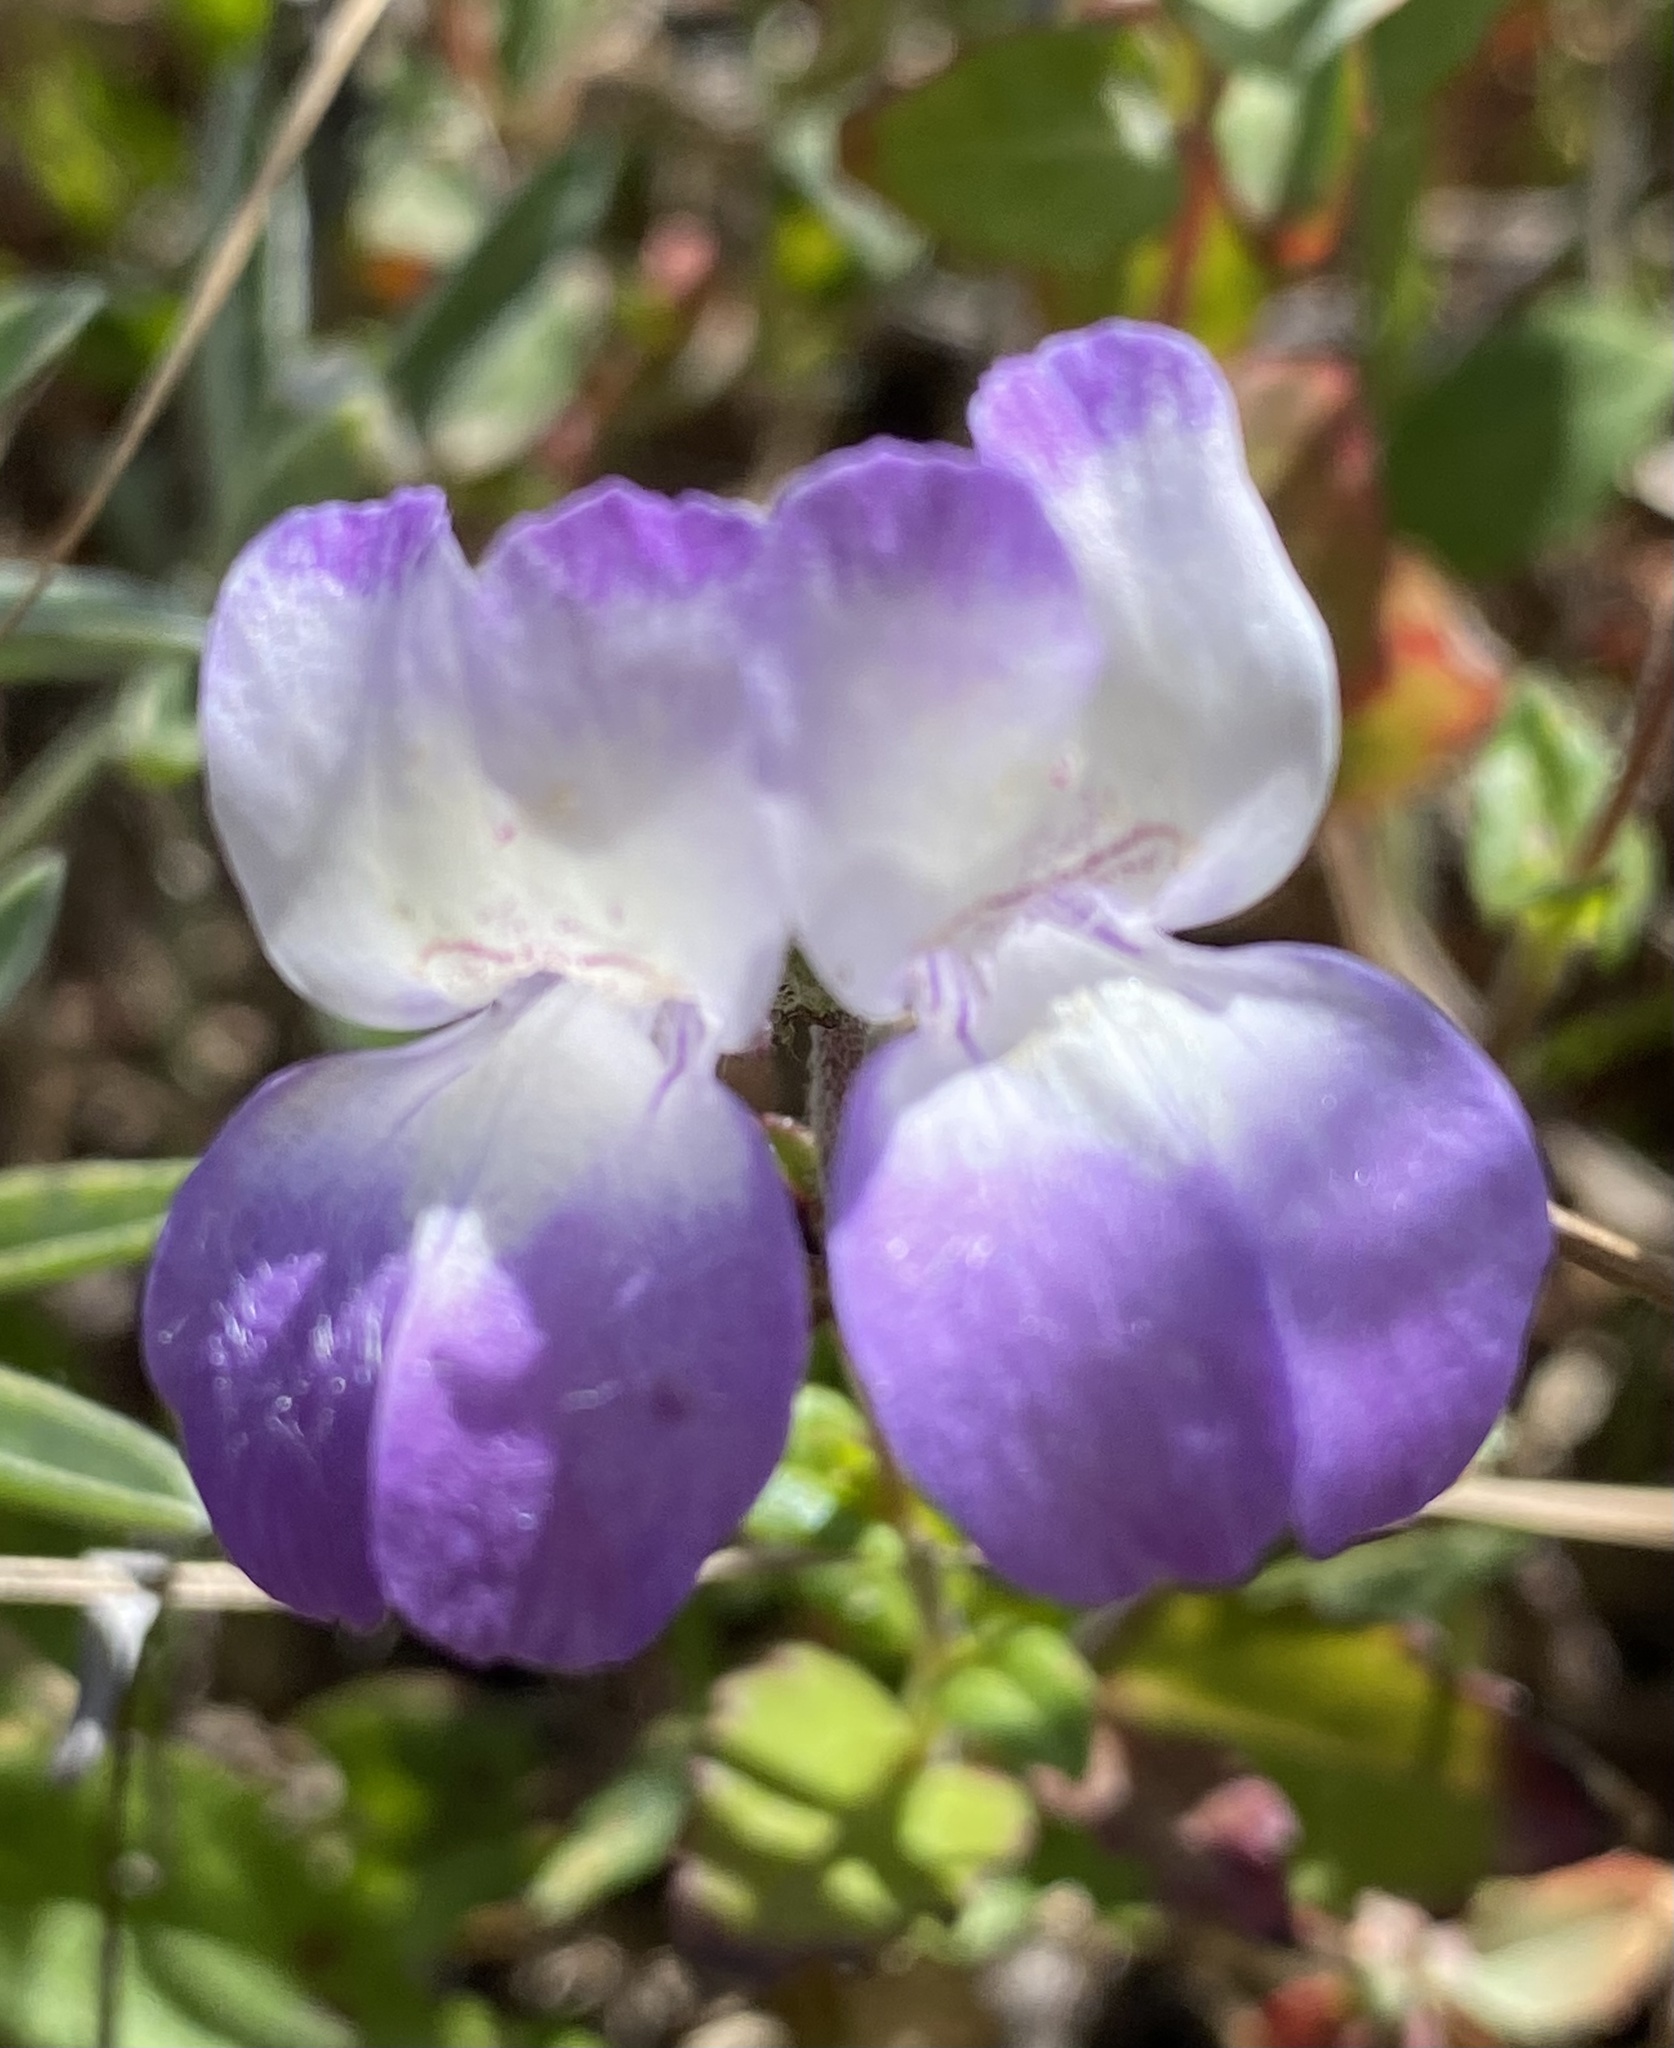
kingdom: Plantae
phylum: Tracheophyta
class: Magnoliopsida
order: Lamiales
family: Plantaginaceae
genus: Collinsia
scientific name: Collinsia heterophylla
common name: Chinese-houses
